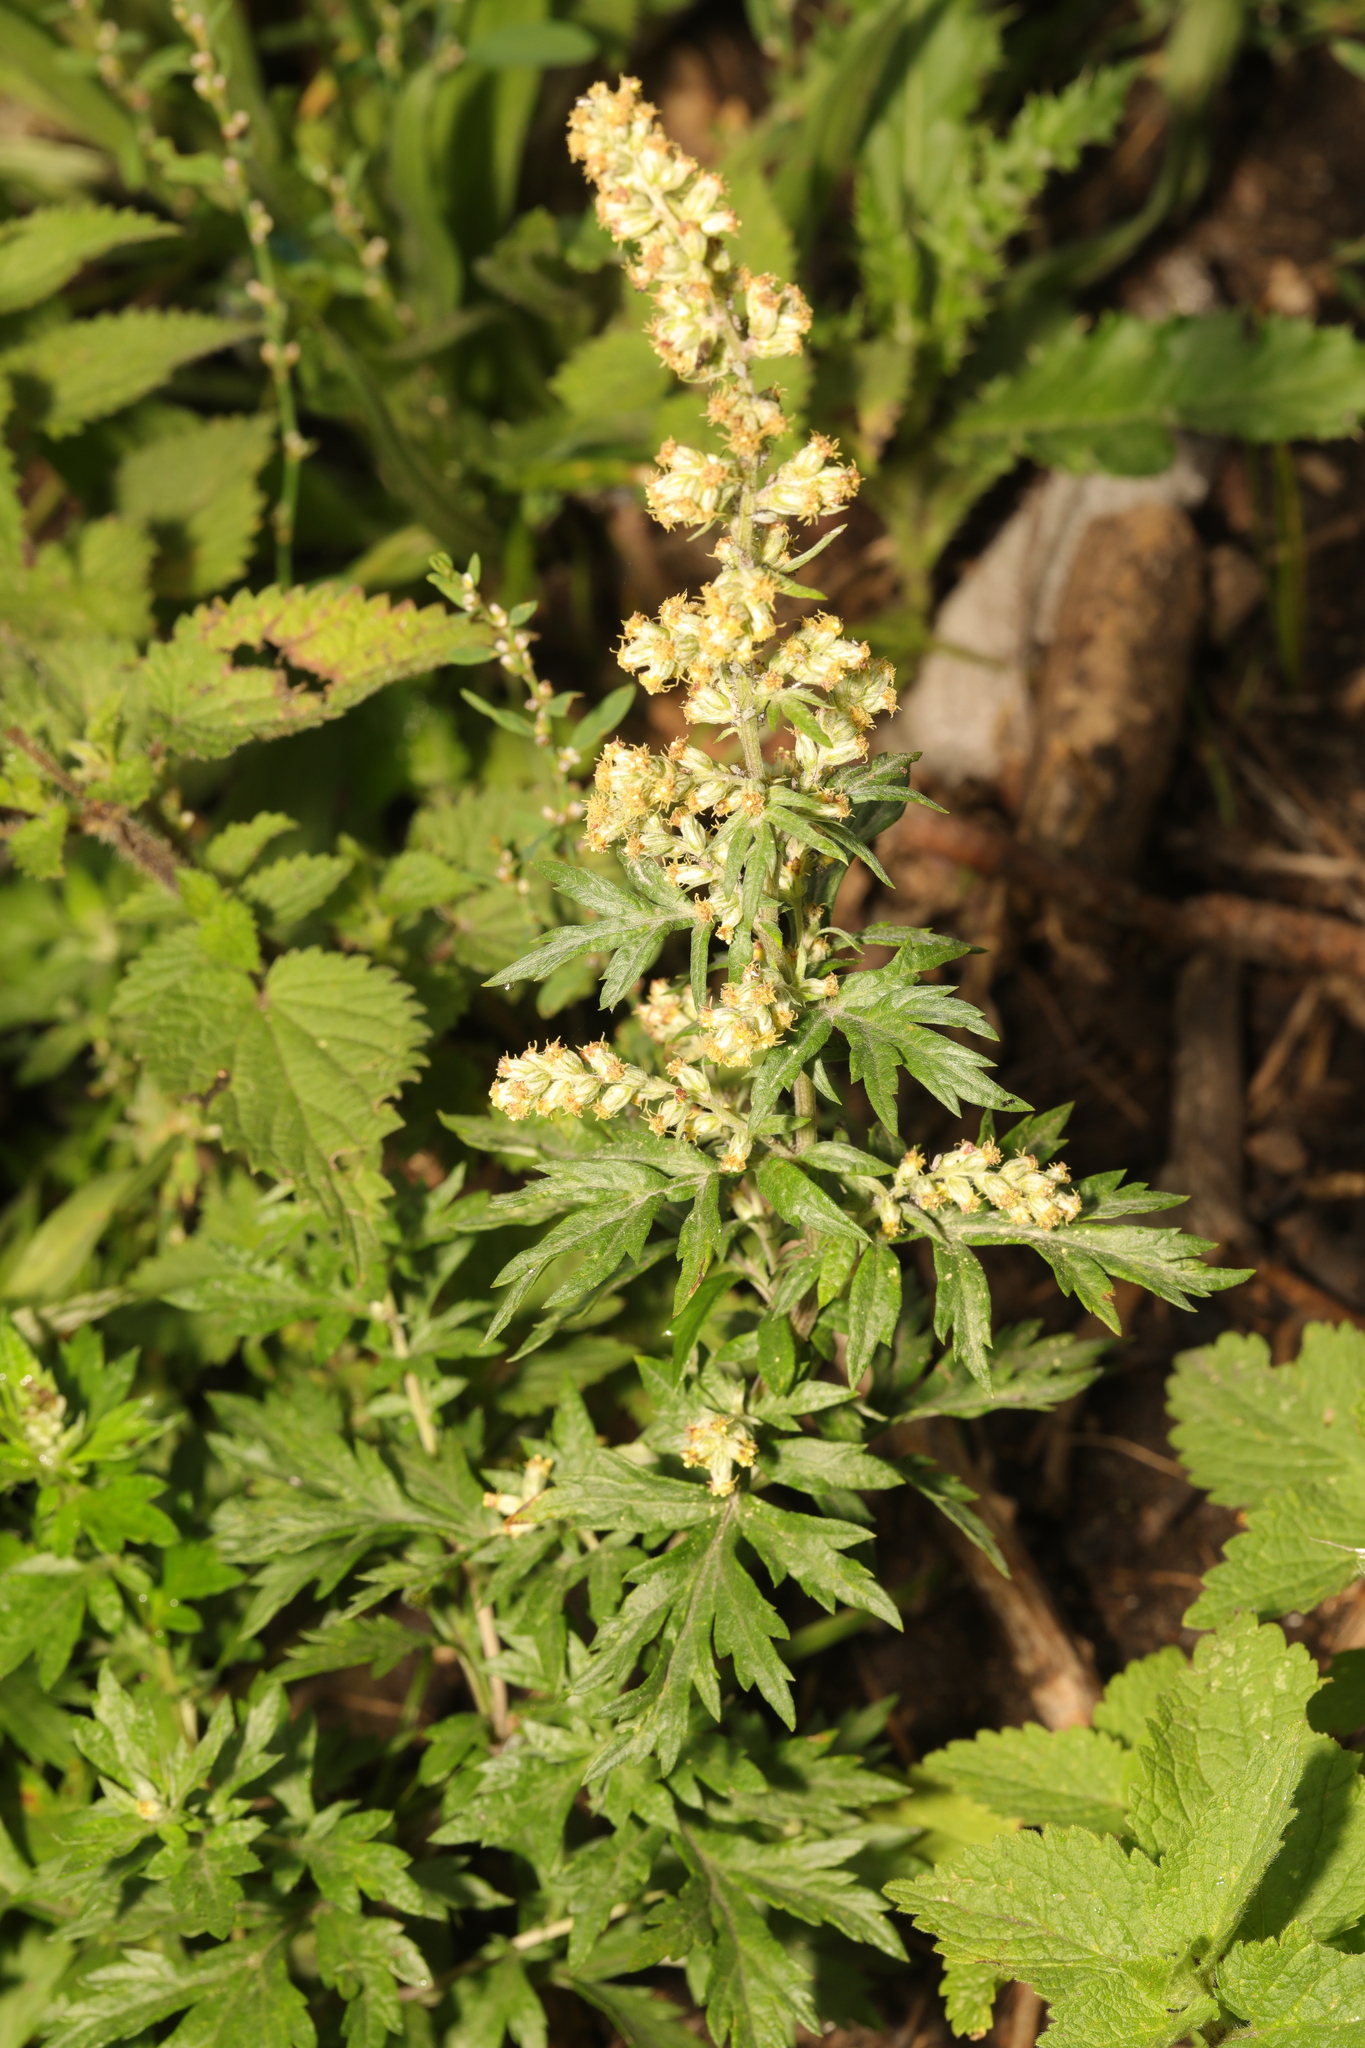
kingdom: Plantae
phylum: Tracheophyta
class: Magnoliopsida
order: Asterales
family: Asteraceae
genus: Artemisia
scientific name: Artemisia vulgaris
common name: Mugwort
